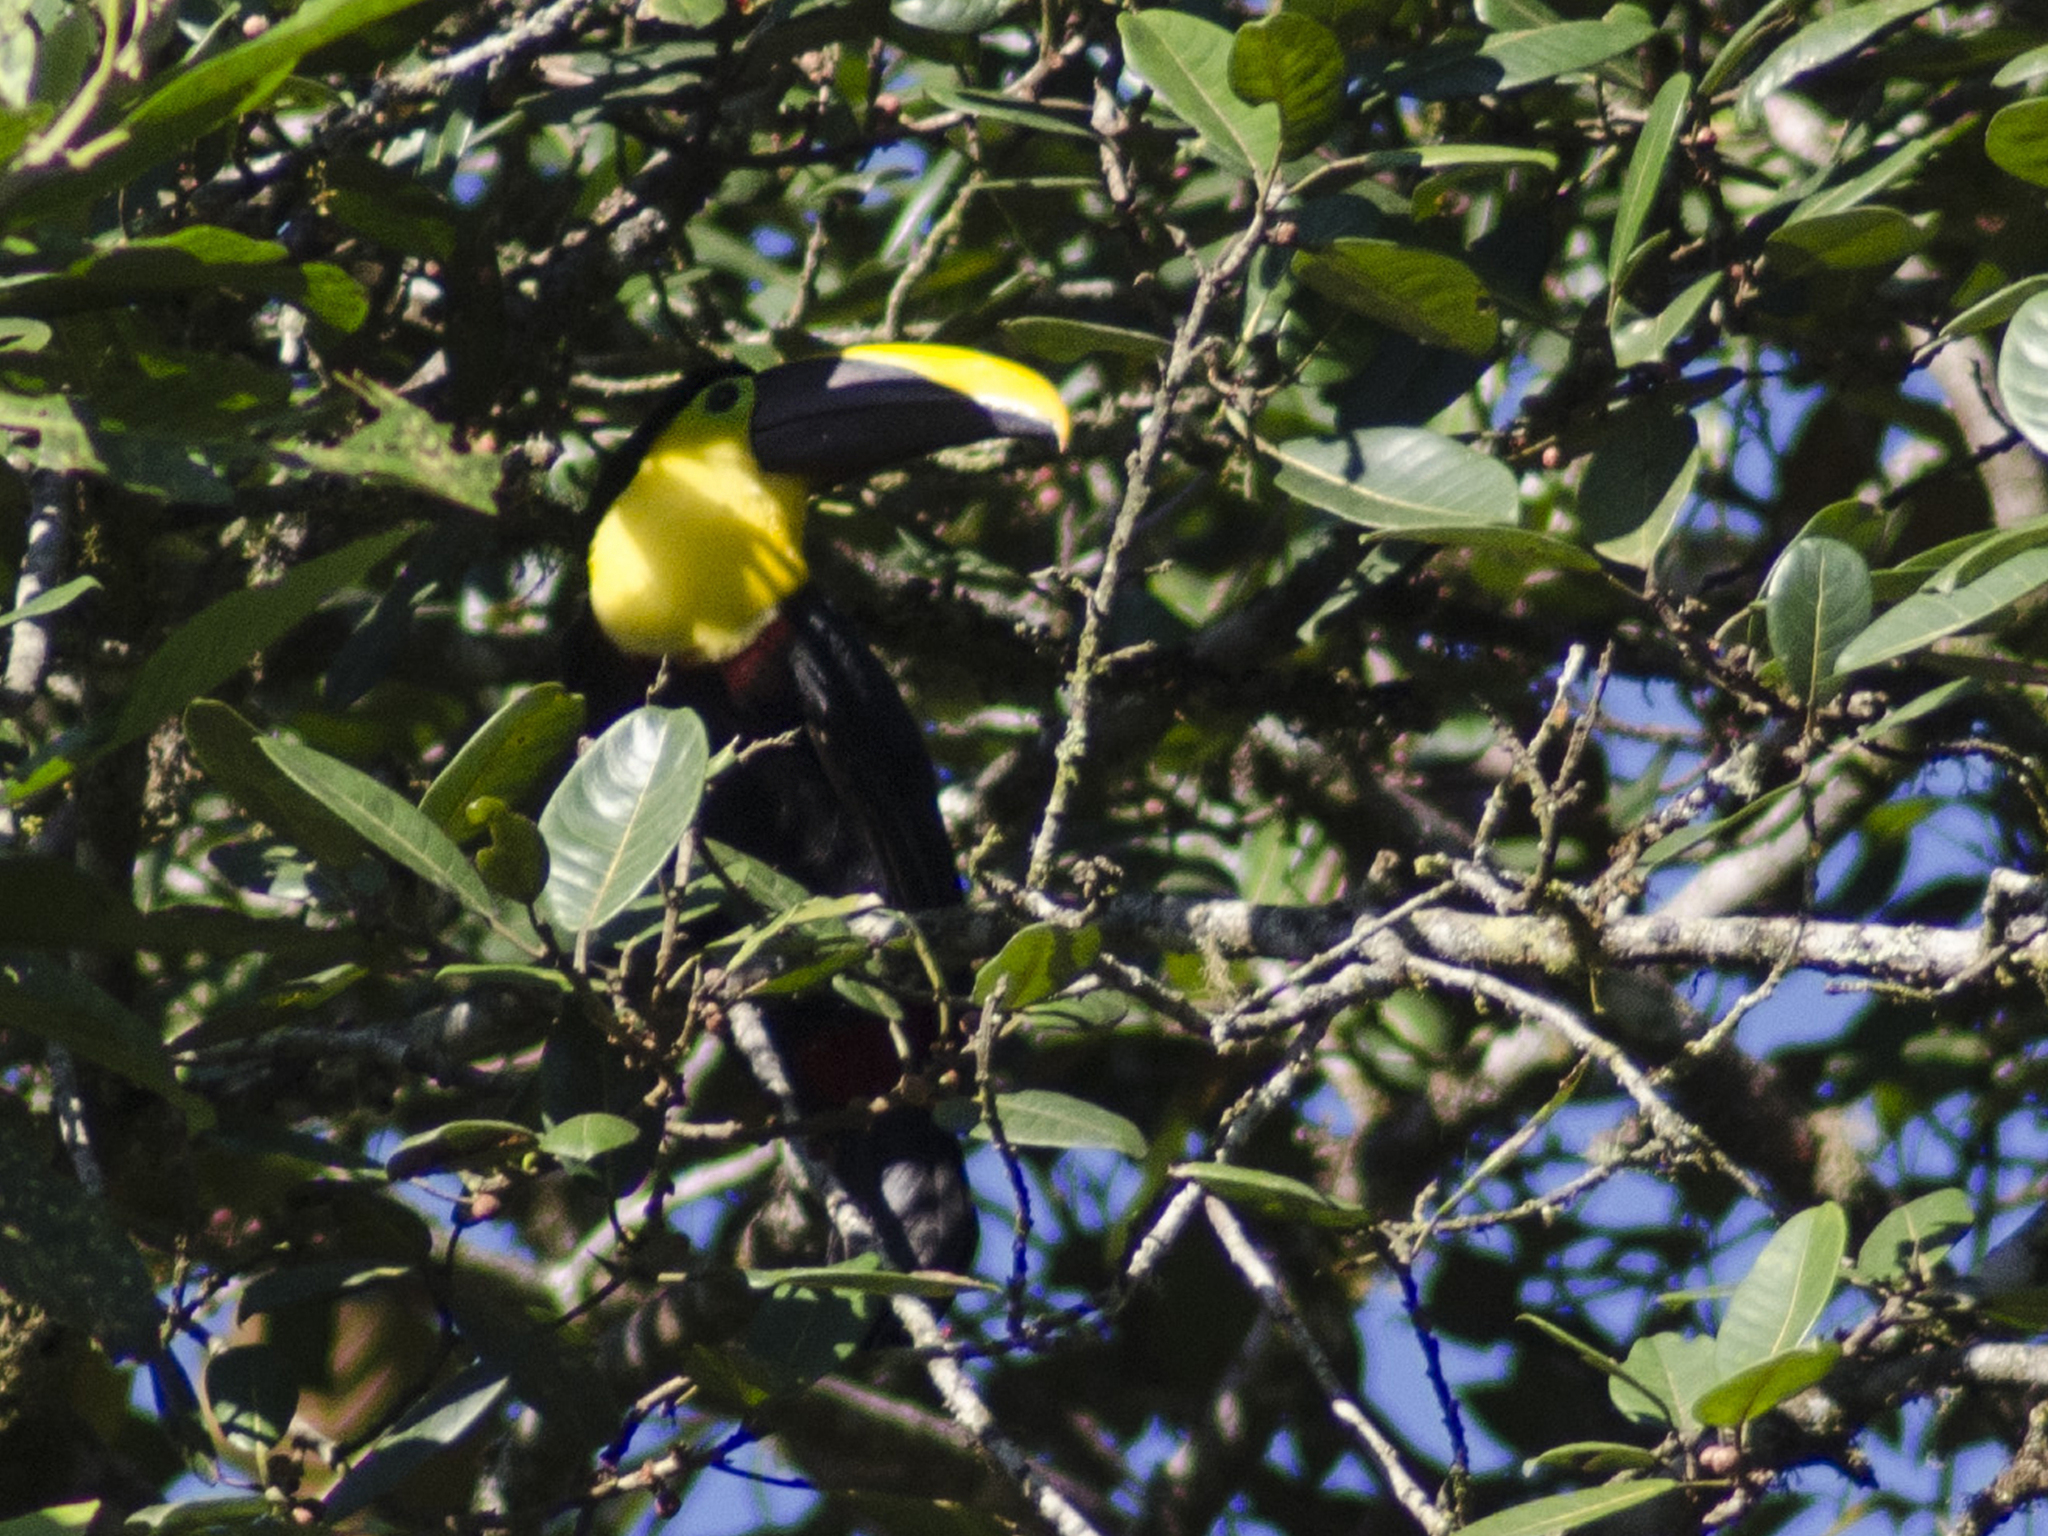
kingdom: Animalia
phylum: Chordata
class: Aves
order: Piciformes
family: Ramphastidae
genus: Ramphastos
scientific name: Ramphastos brevis
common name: Choco toucan
